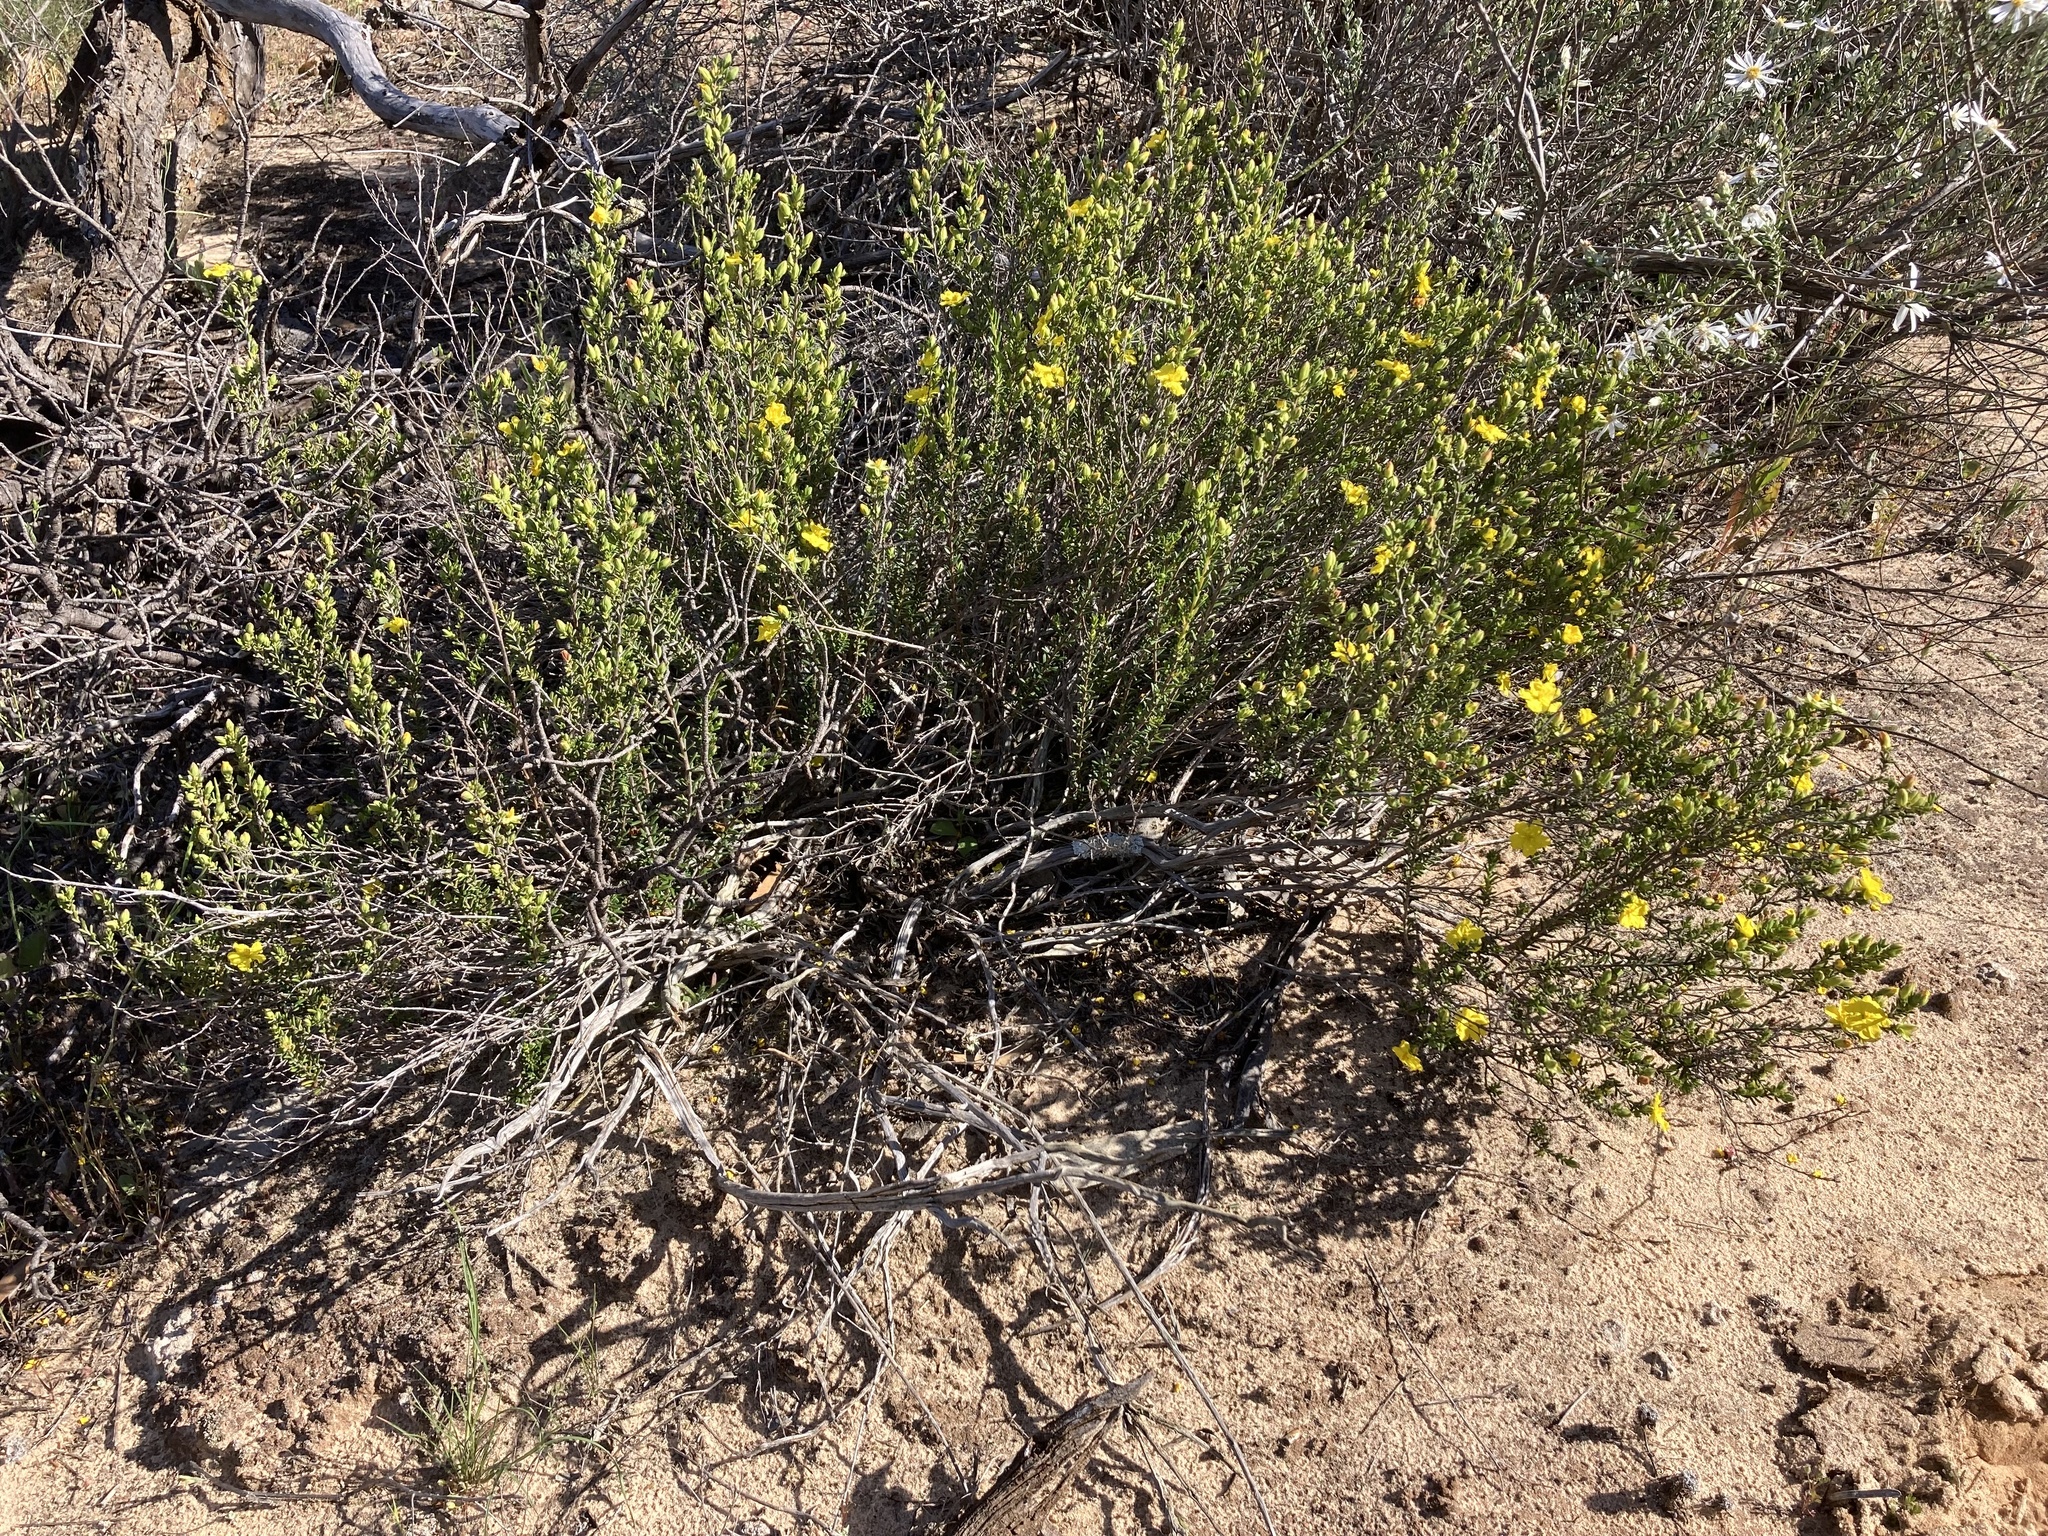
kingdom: Plantae
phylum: Tracheophyta
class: Magnoliopsida
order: Dilleniales
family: Dilleniaceae
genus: Hibbertia
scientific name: Hibbertia devitata
